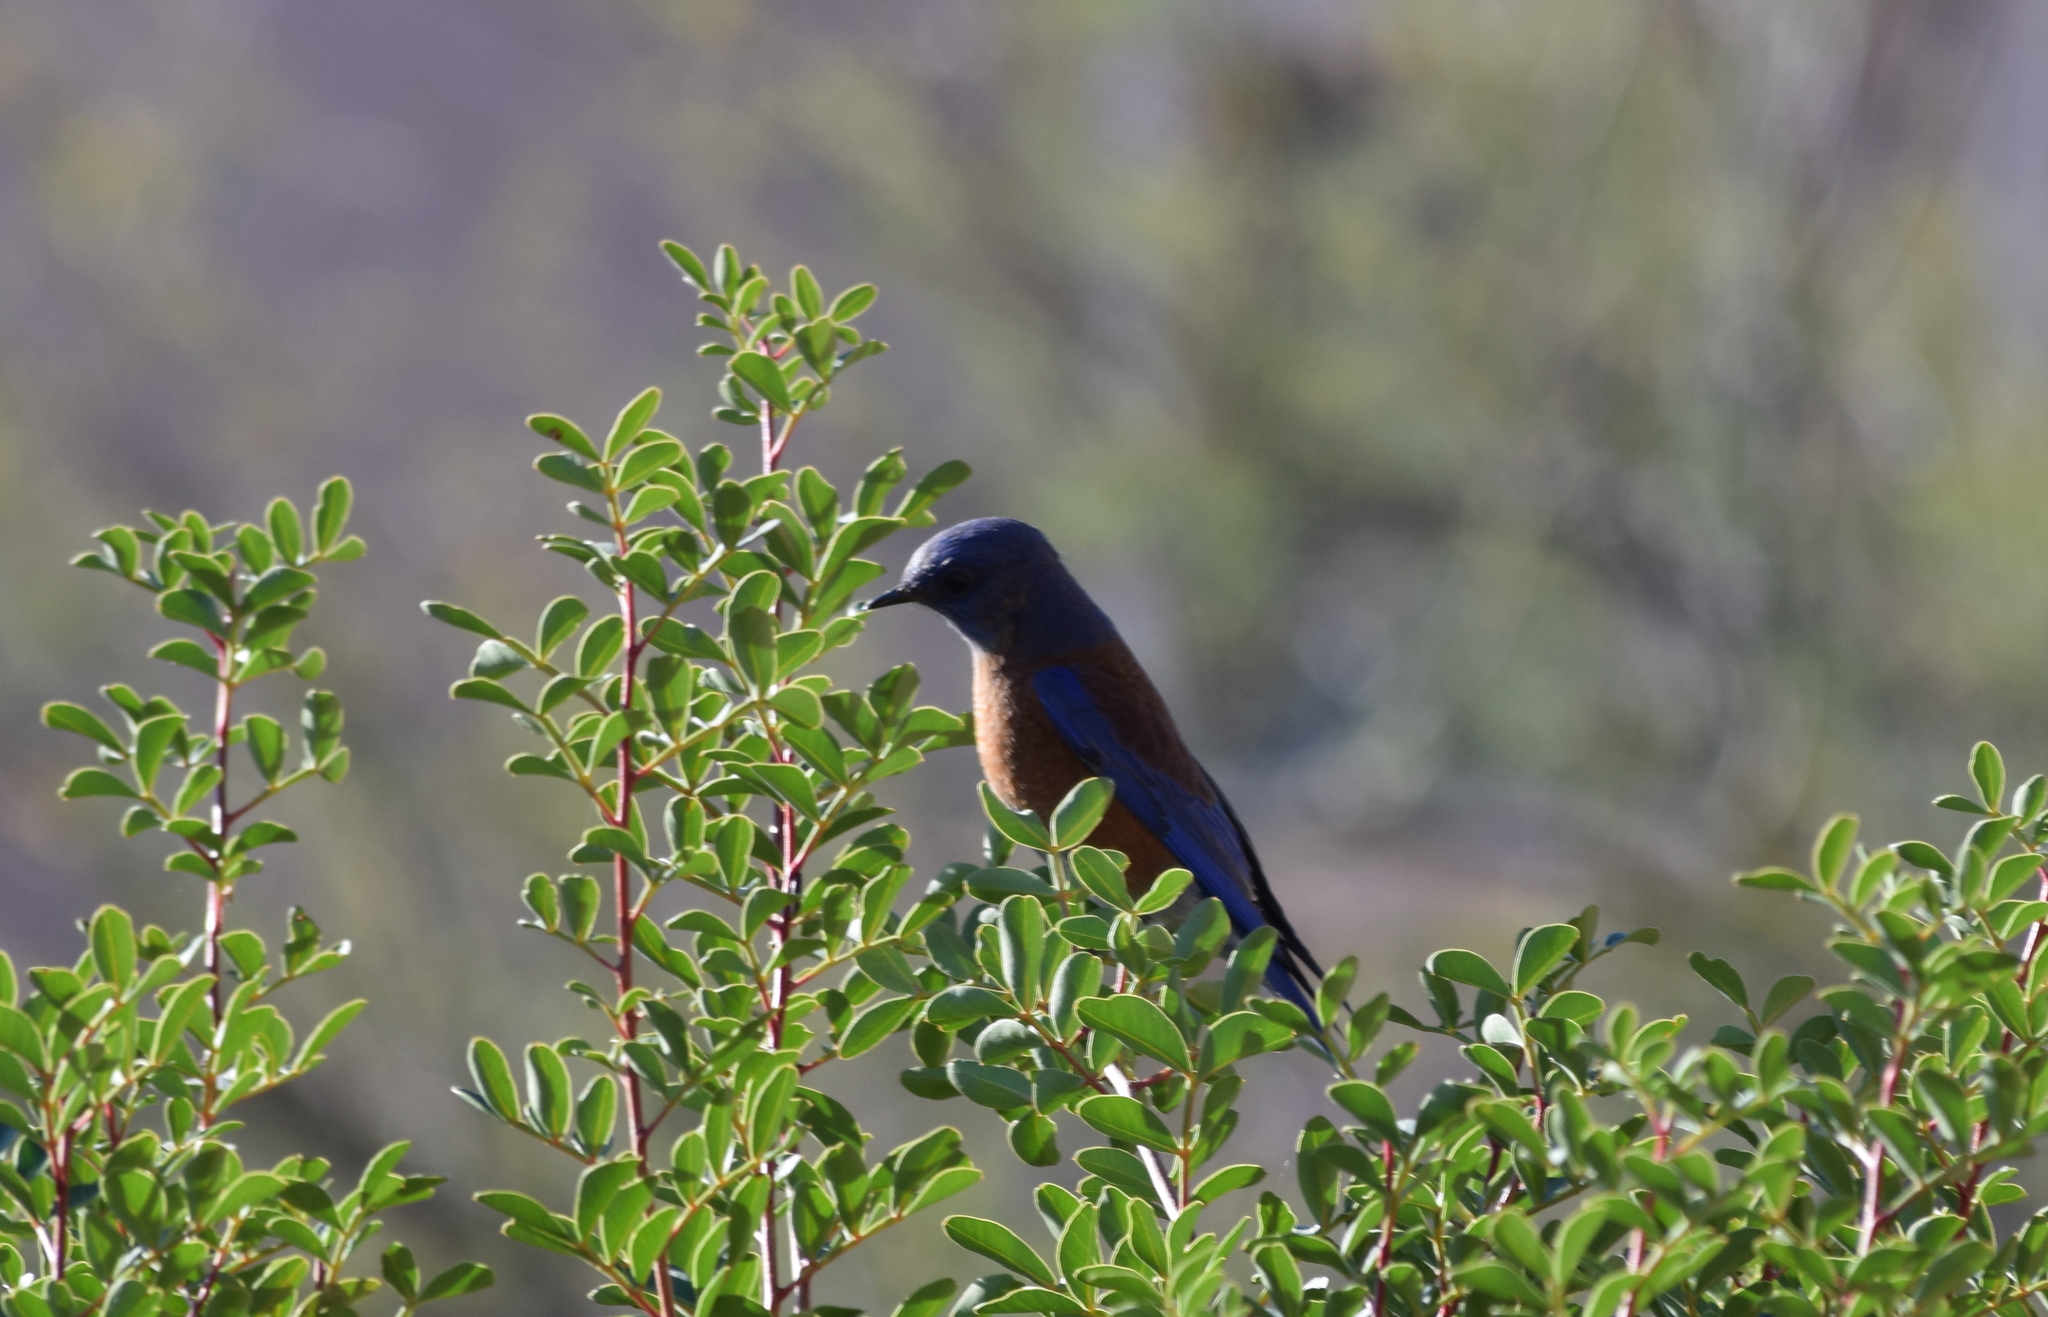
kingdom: Animalia
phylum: Chordata
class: Aves
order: Passeriformes
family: Turdidae
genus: Sialia
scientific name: Sialia mexicana
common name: Western bluebird
